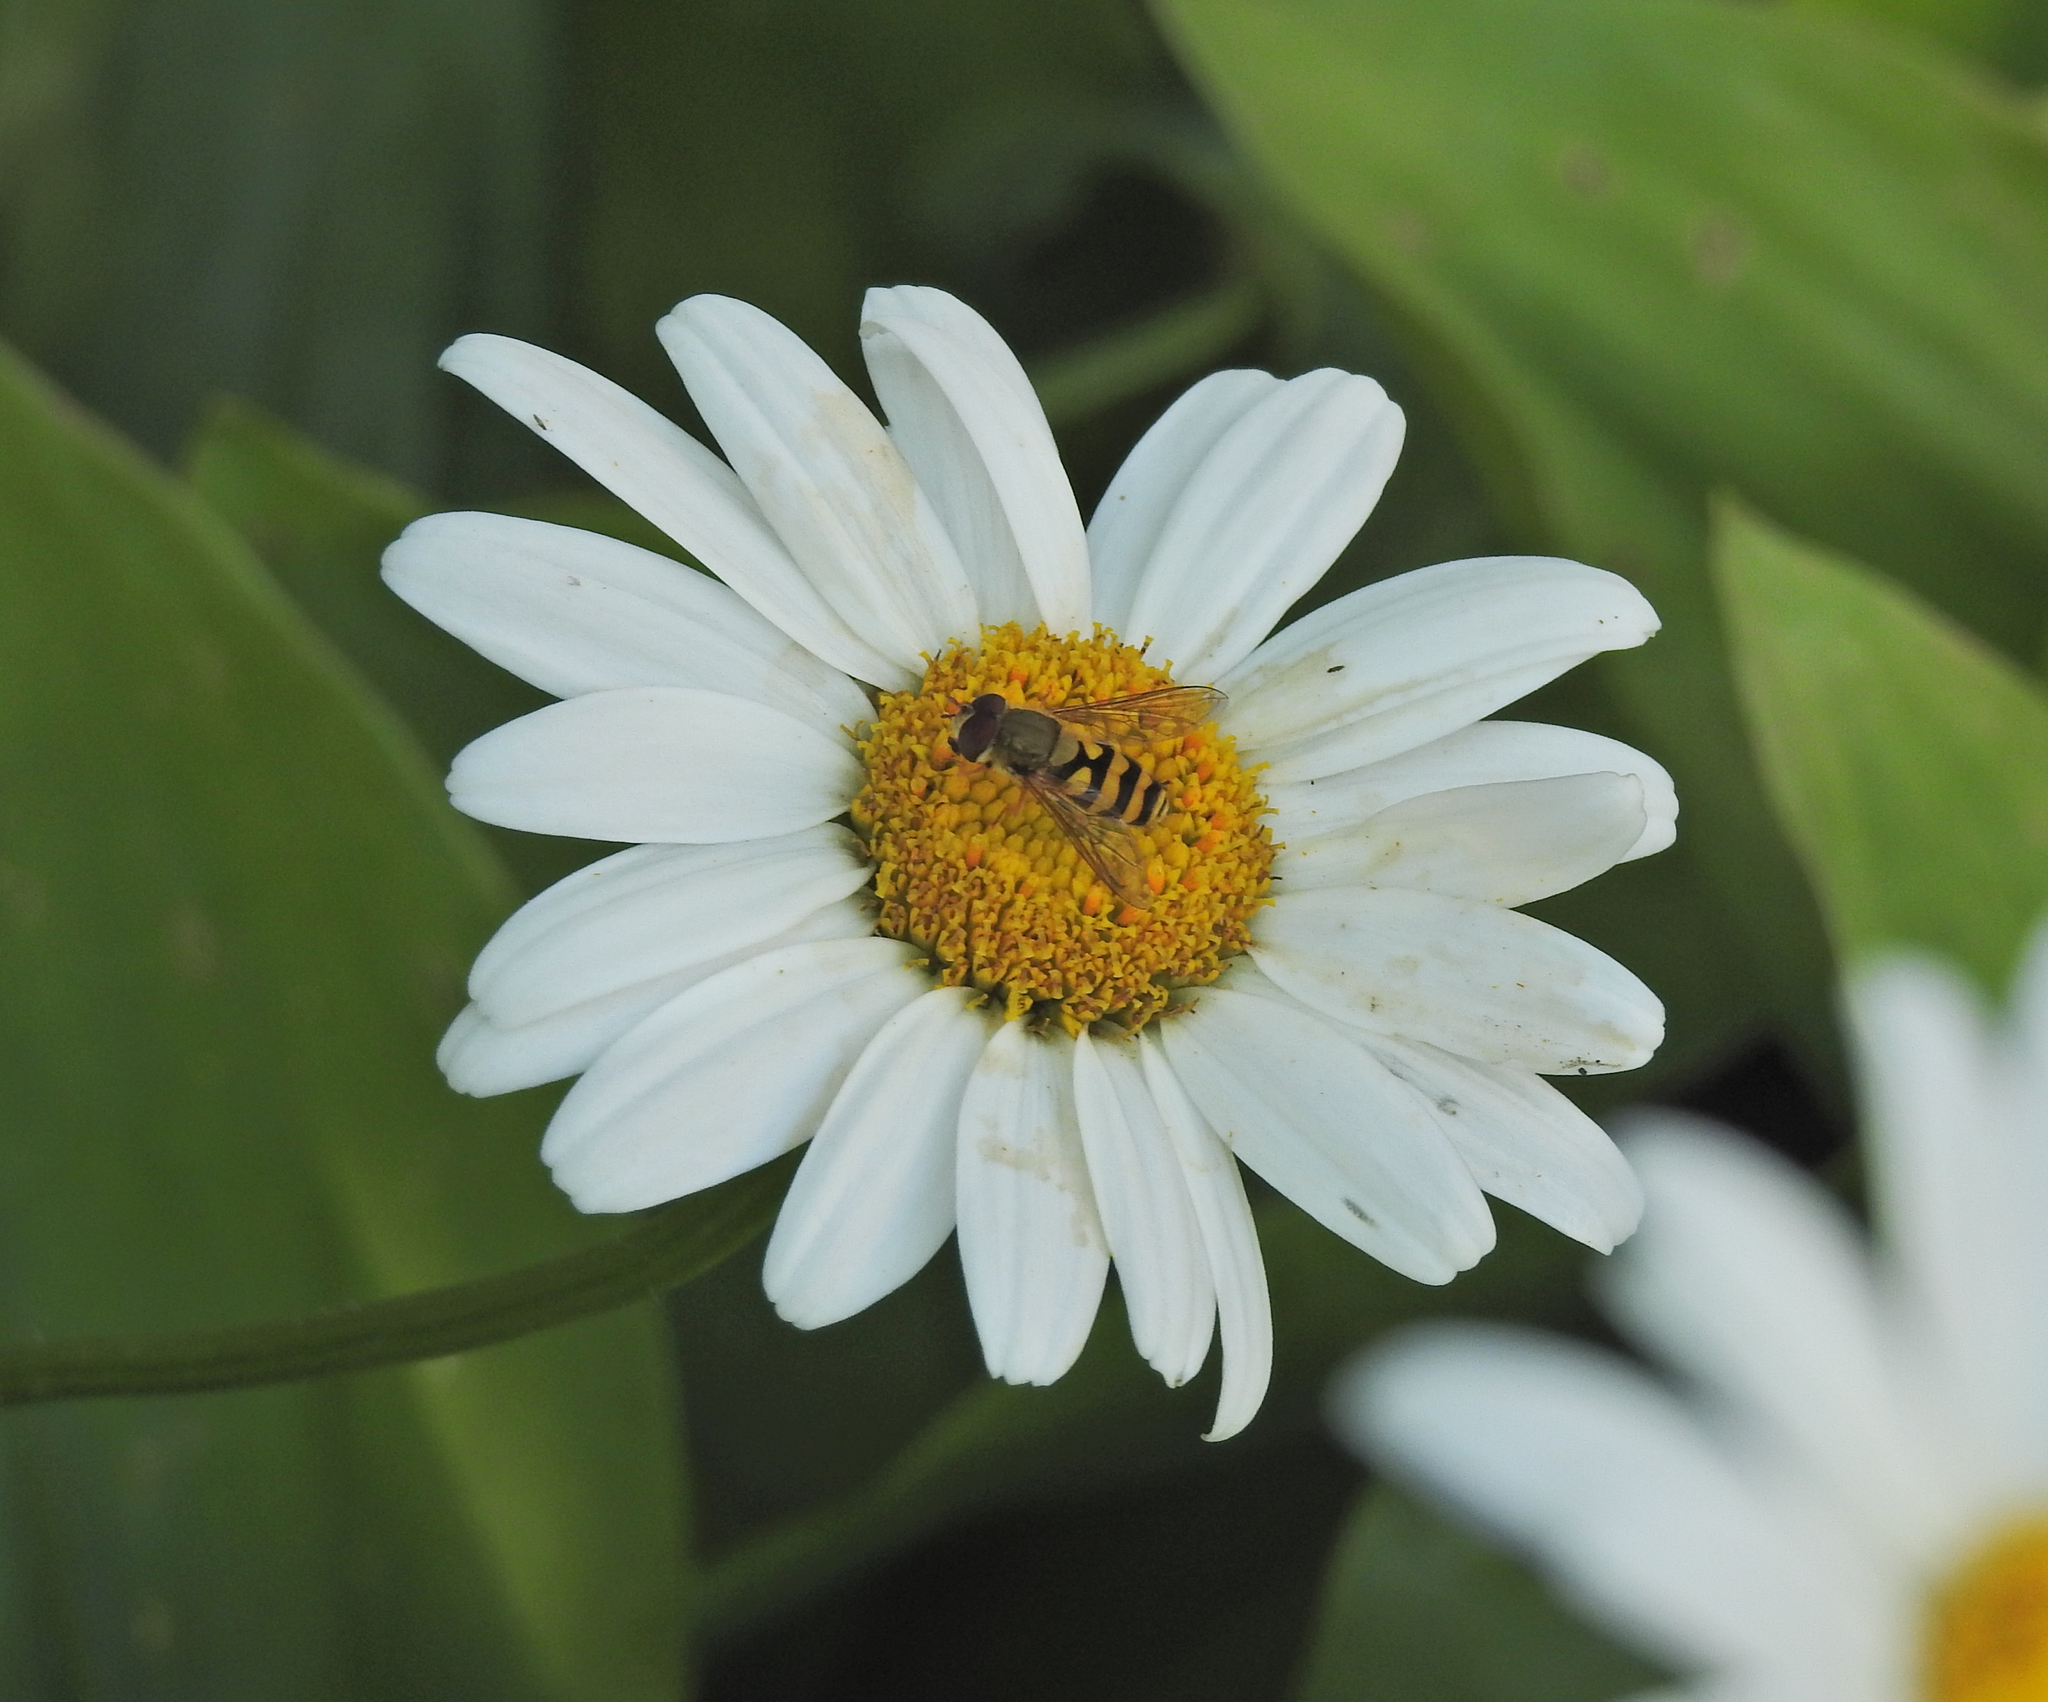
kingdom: Animalia
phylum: Arthropoda
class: Insecta
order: Diptera
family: Syrphidae
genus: Syrphus
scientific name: Syrphus
